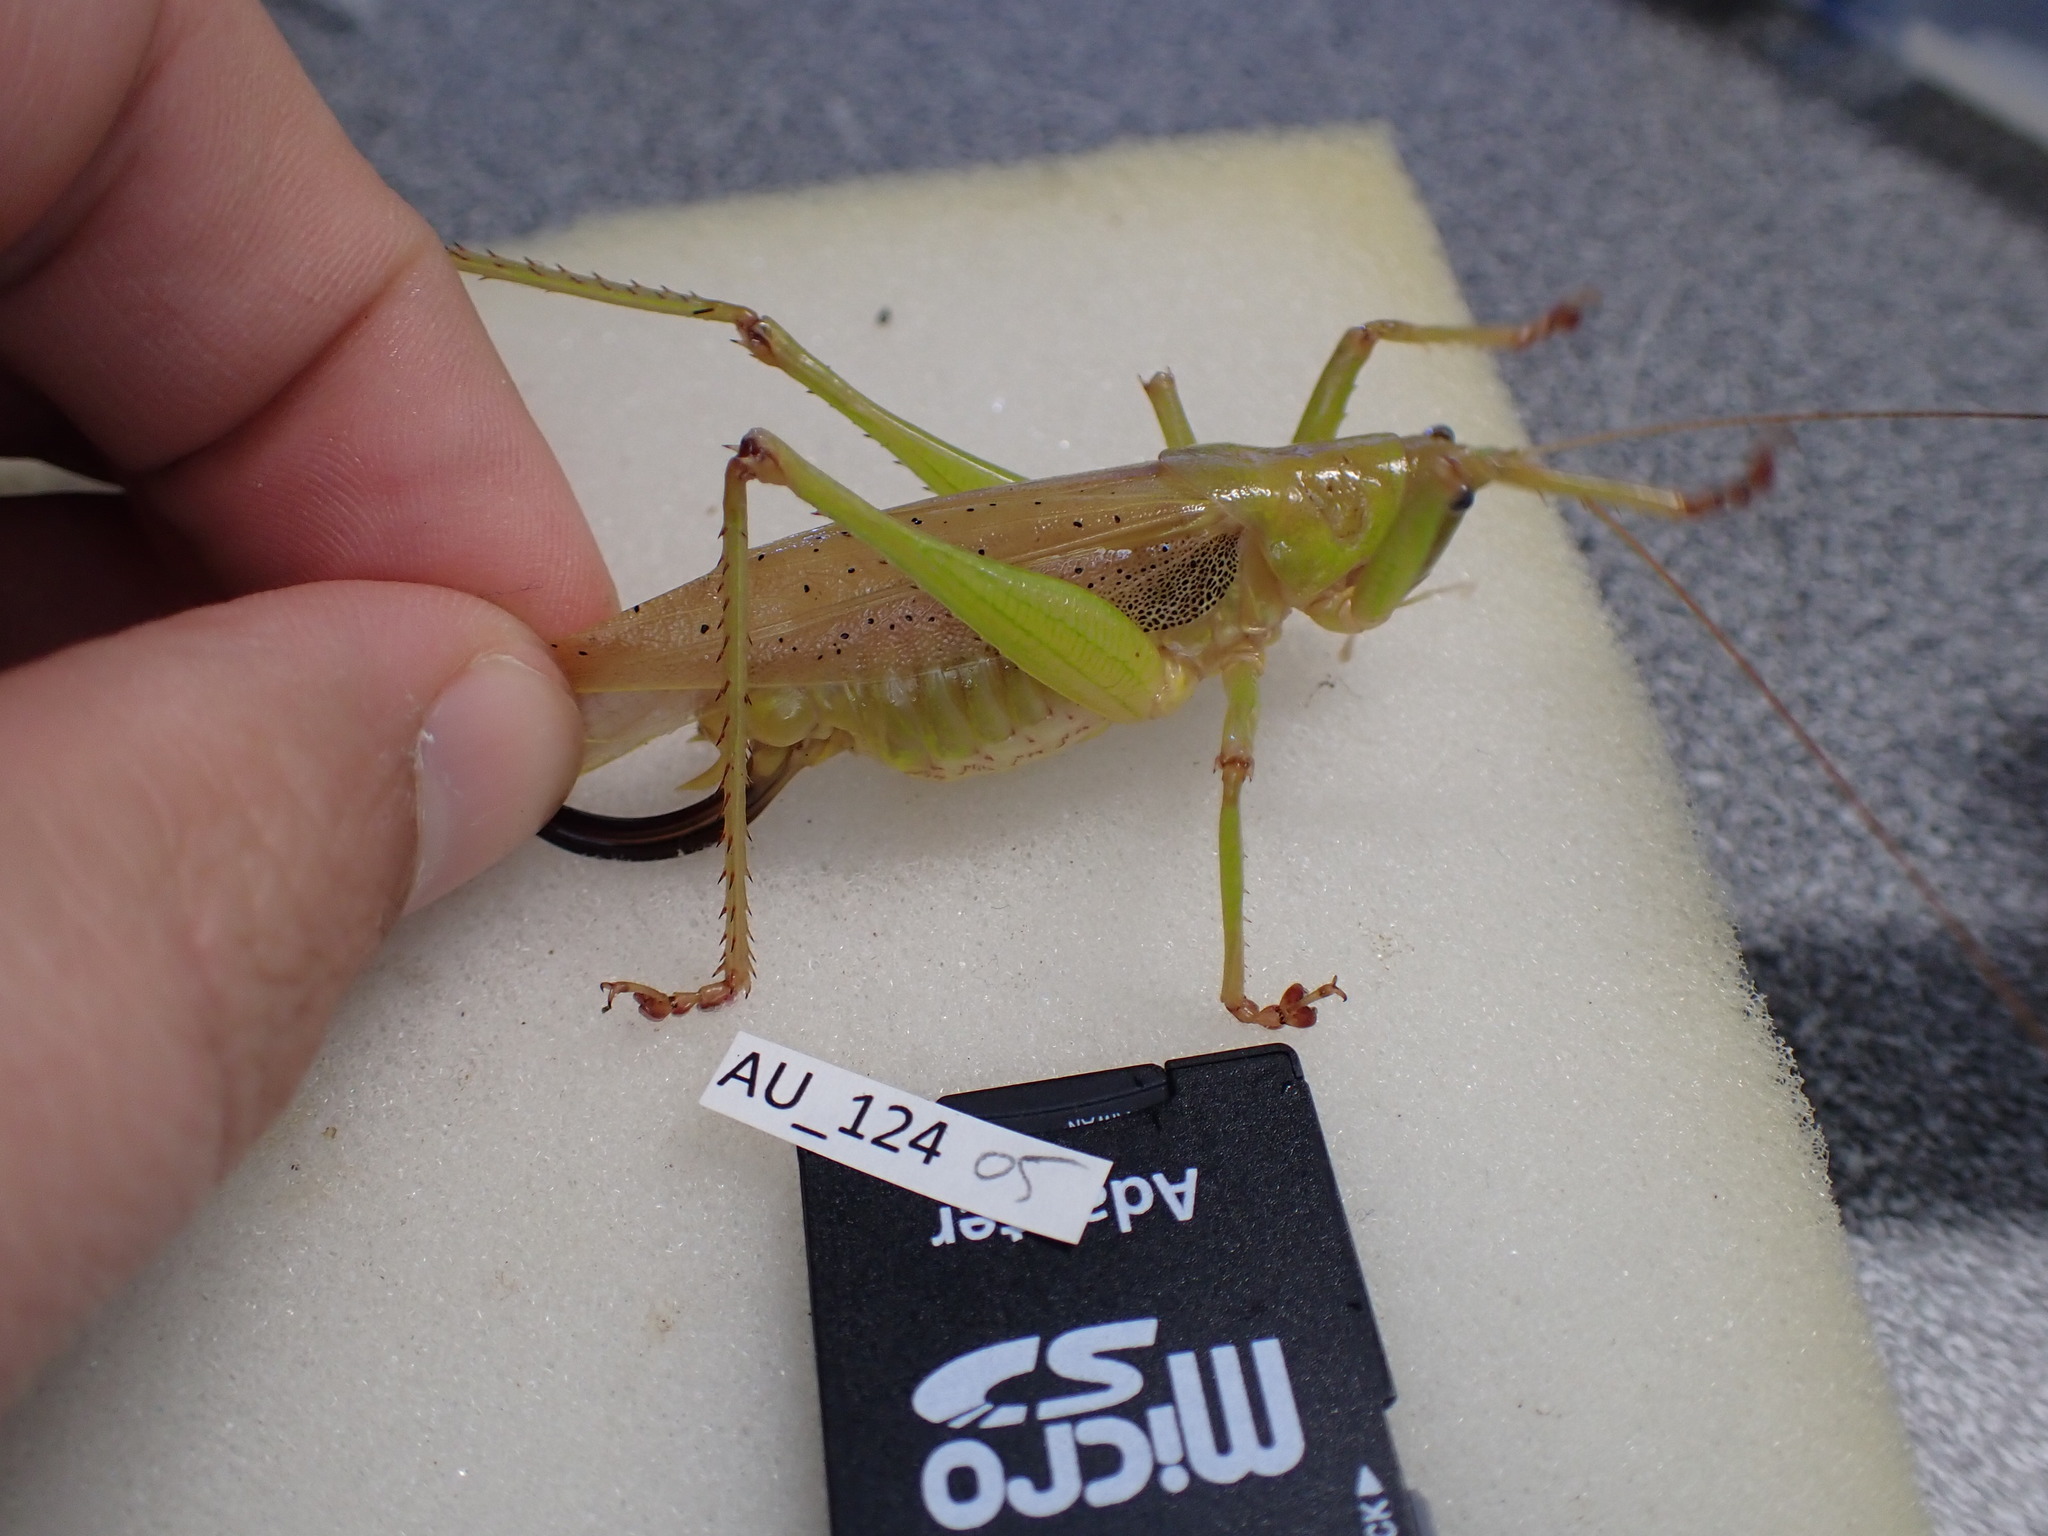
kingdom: Animalia
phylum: Arthropoda
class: Insecta
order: Orthoptera
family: Tettigoniidae
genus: Austrosalomona
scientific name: Austrosalomona destructor
